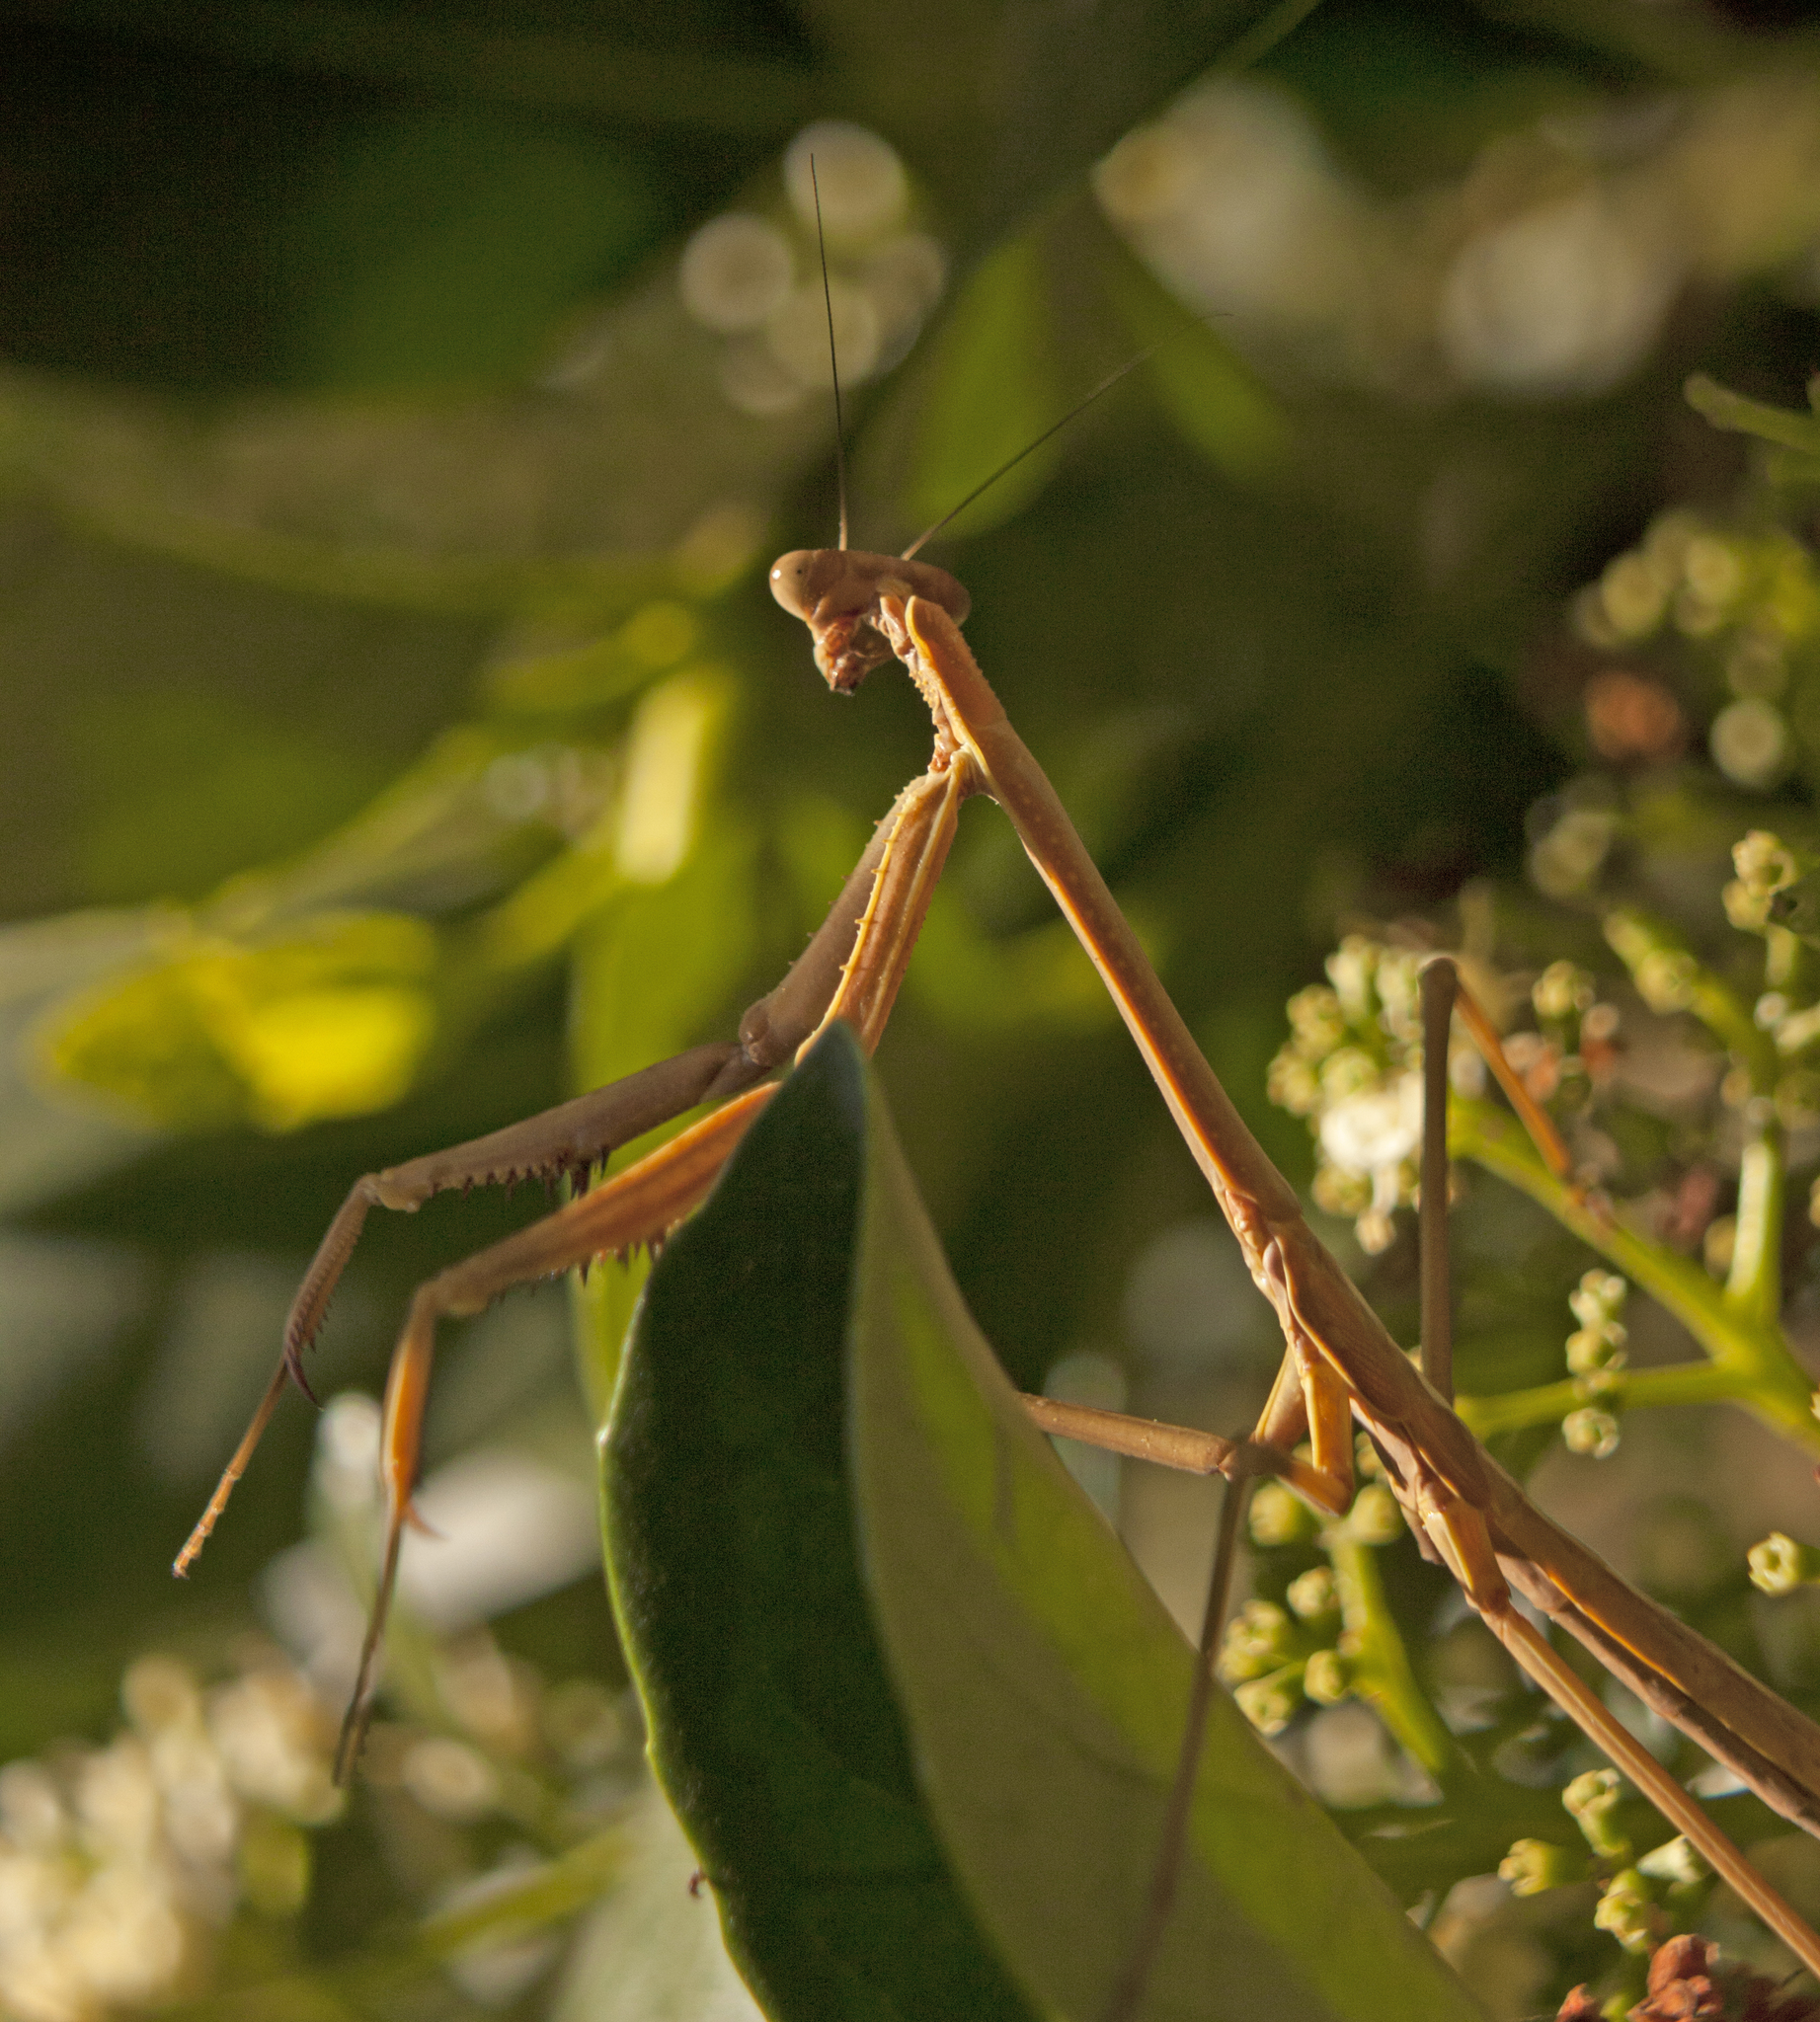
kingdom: Animalia
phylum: Arthropoda
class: Insecta
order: Mantodea
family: Mantidae
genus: Archimantis
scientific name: Archimantis latistyla
